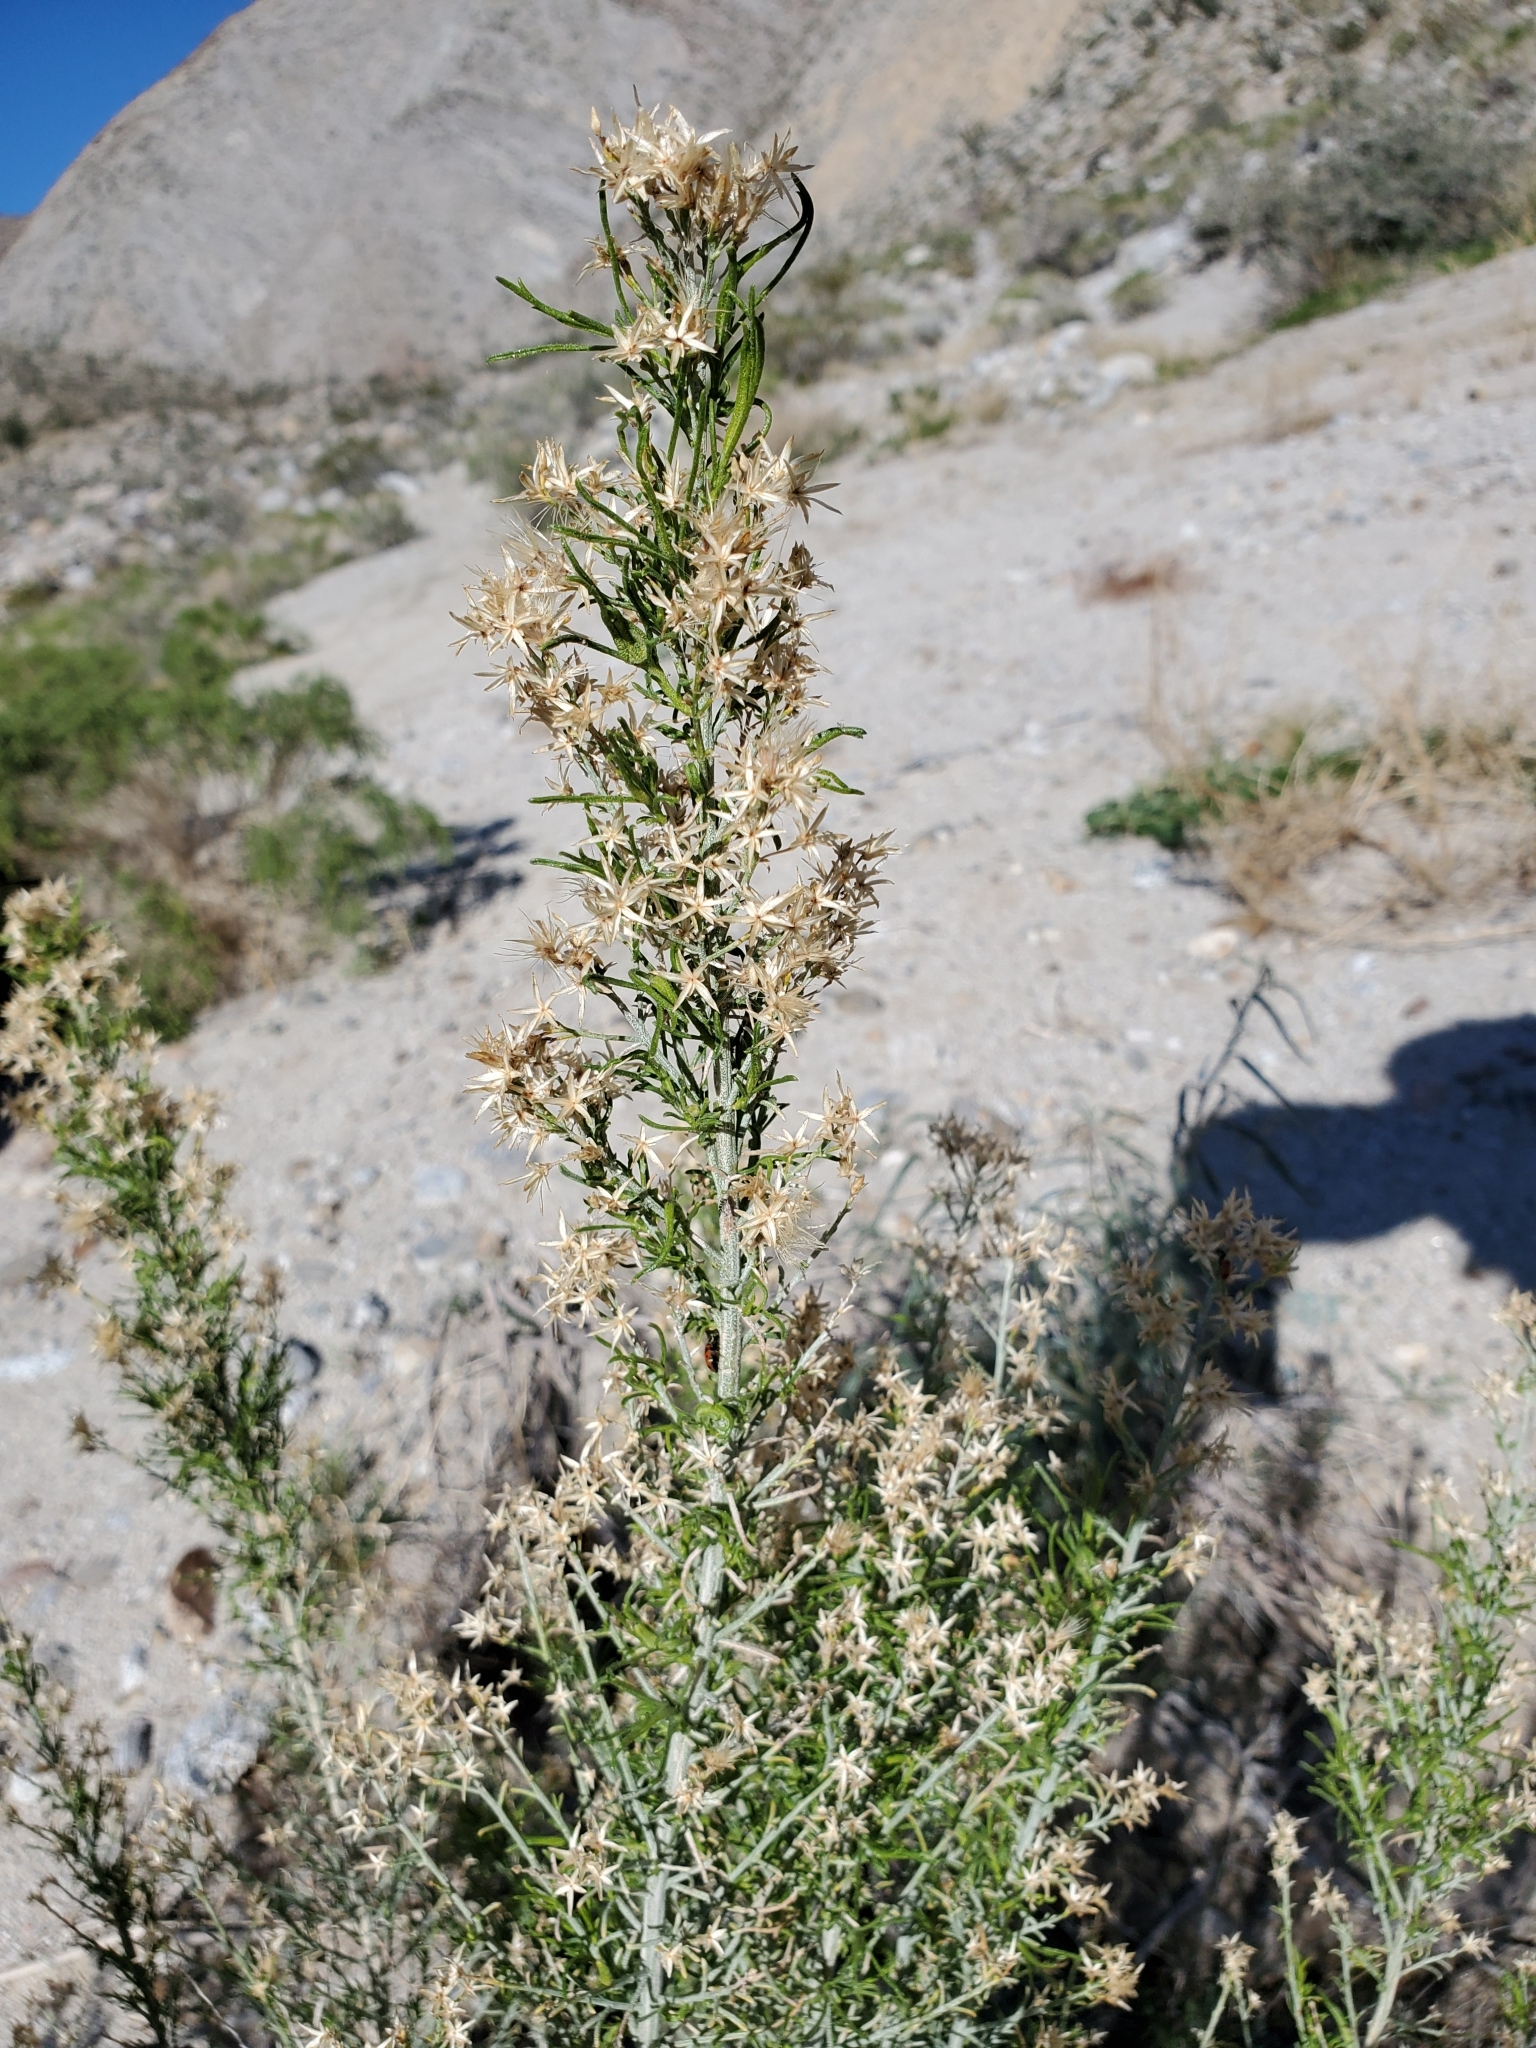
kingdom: Plantae
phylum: Tracheophyta
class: Magnoliopsida
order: Asterales
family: Asteraceae
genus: Ericameria
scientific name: Ericameria paniculata
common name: Punctate rabbitbrush
